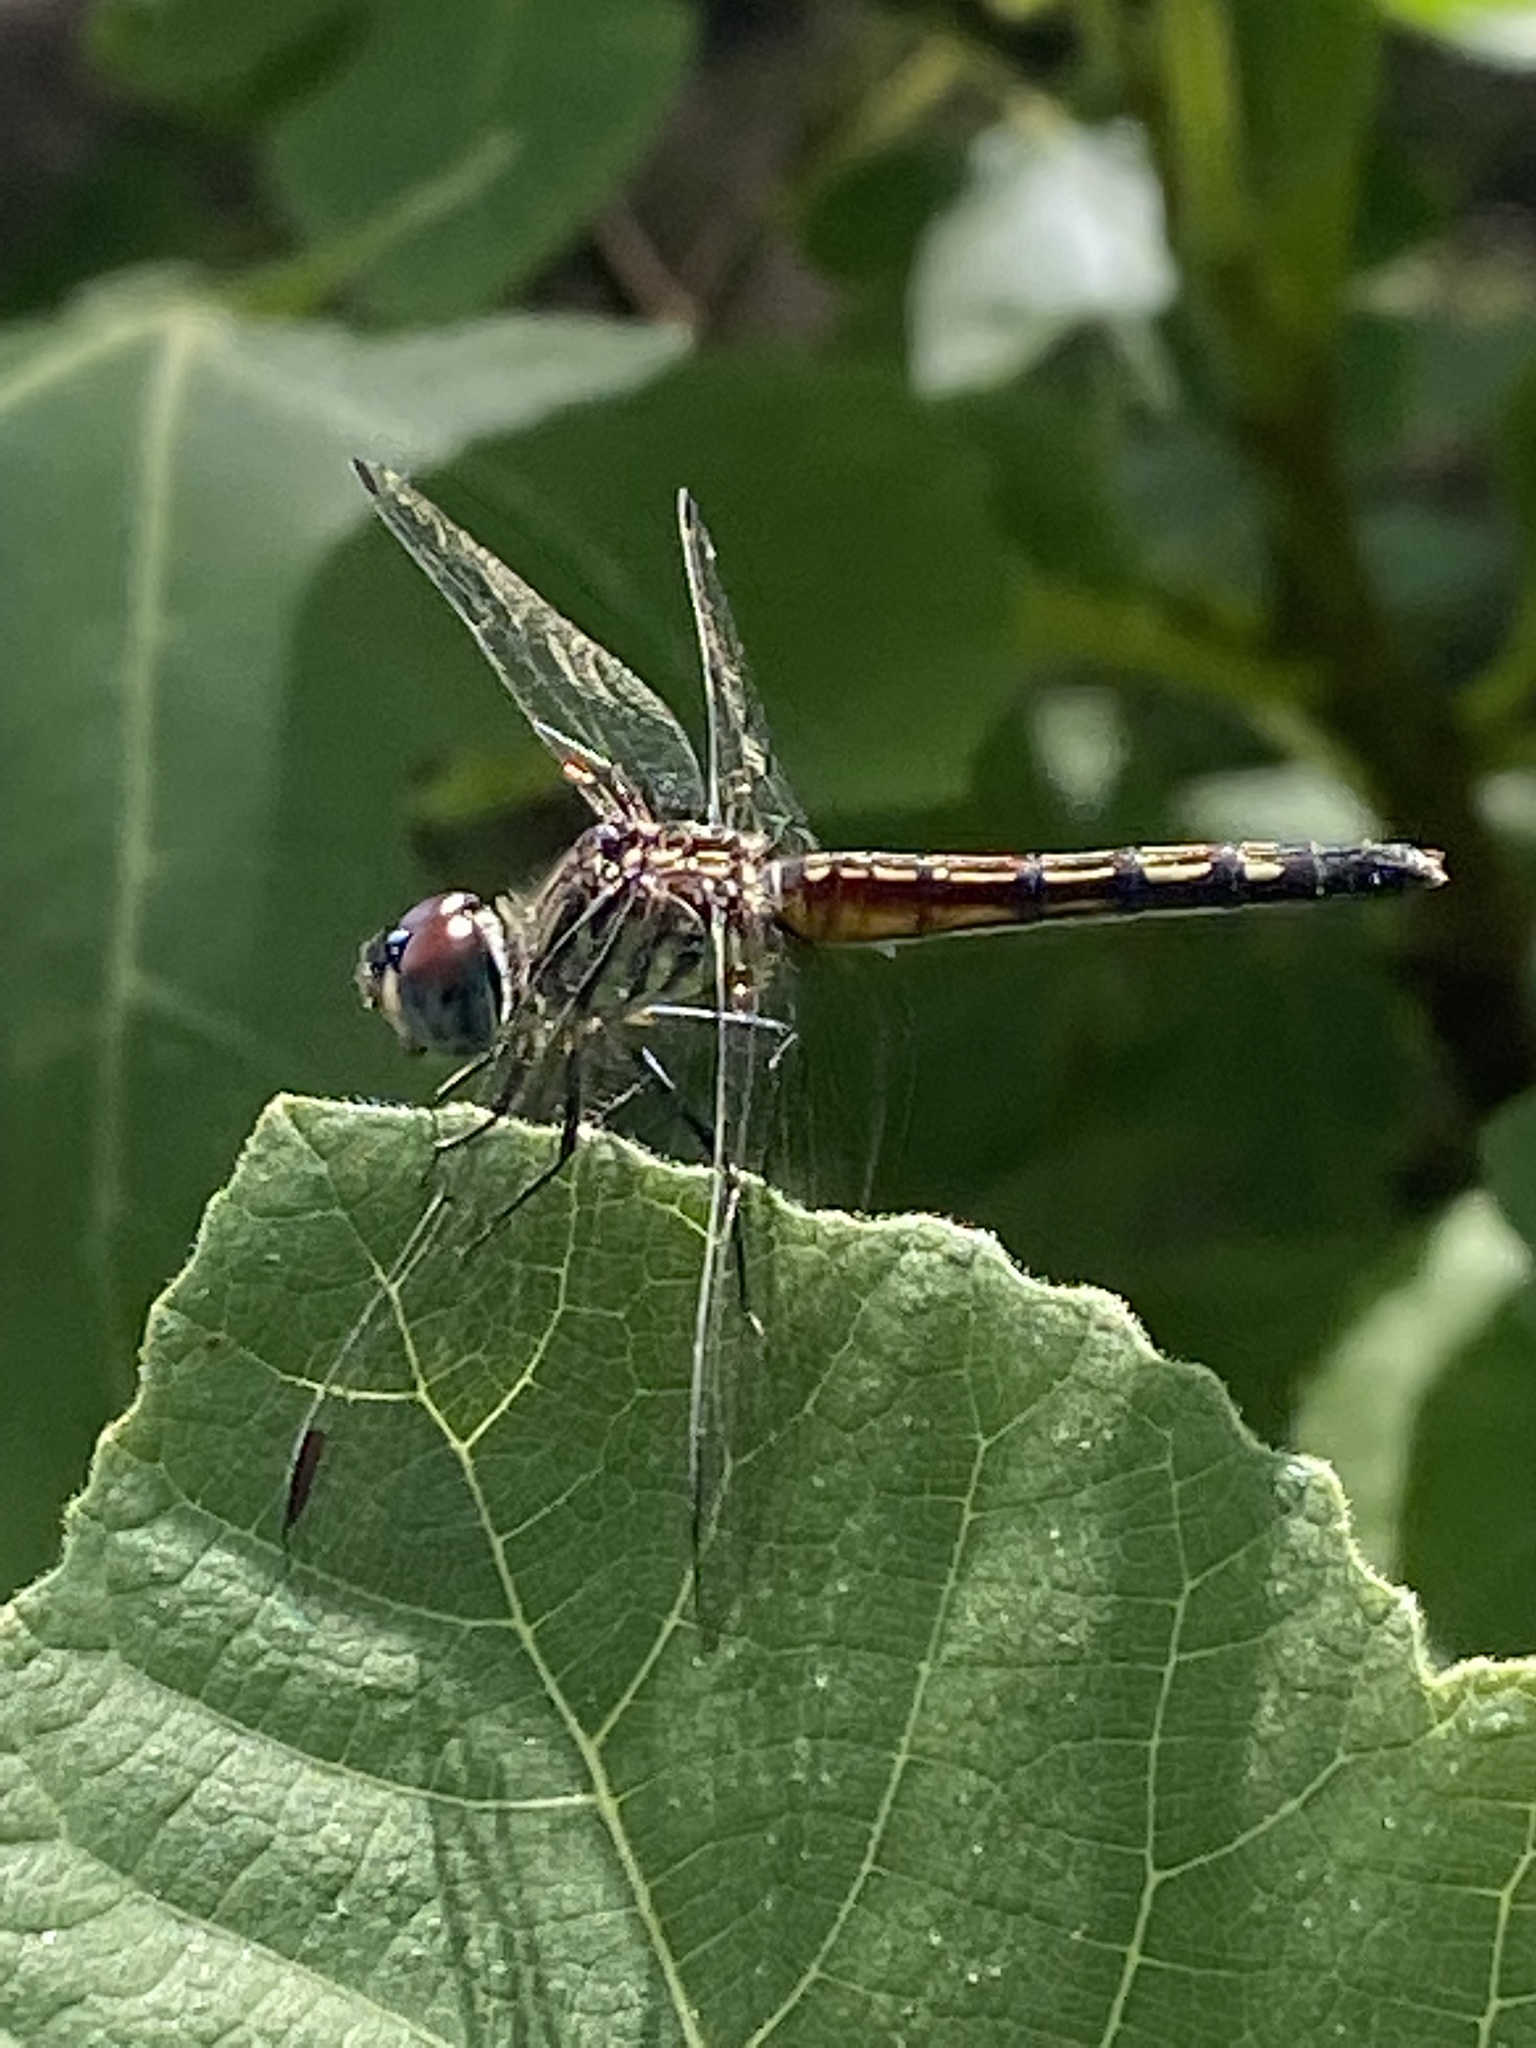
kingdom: Animalia
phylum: Arthropoda
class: Insecta
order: Odonata
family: Libellulidae
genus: Pachydiplax
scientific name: Pachydiplax longipennis
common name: Blue dasher
